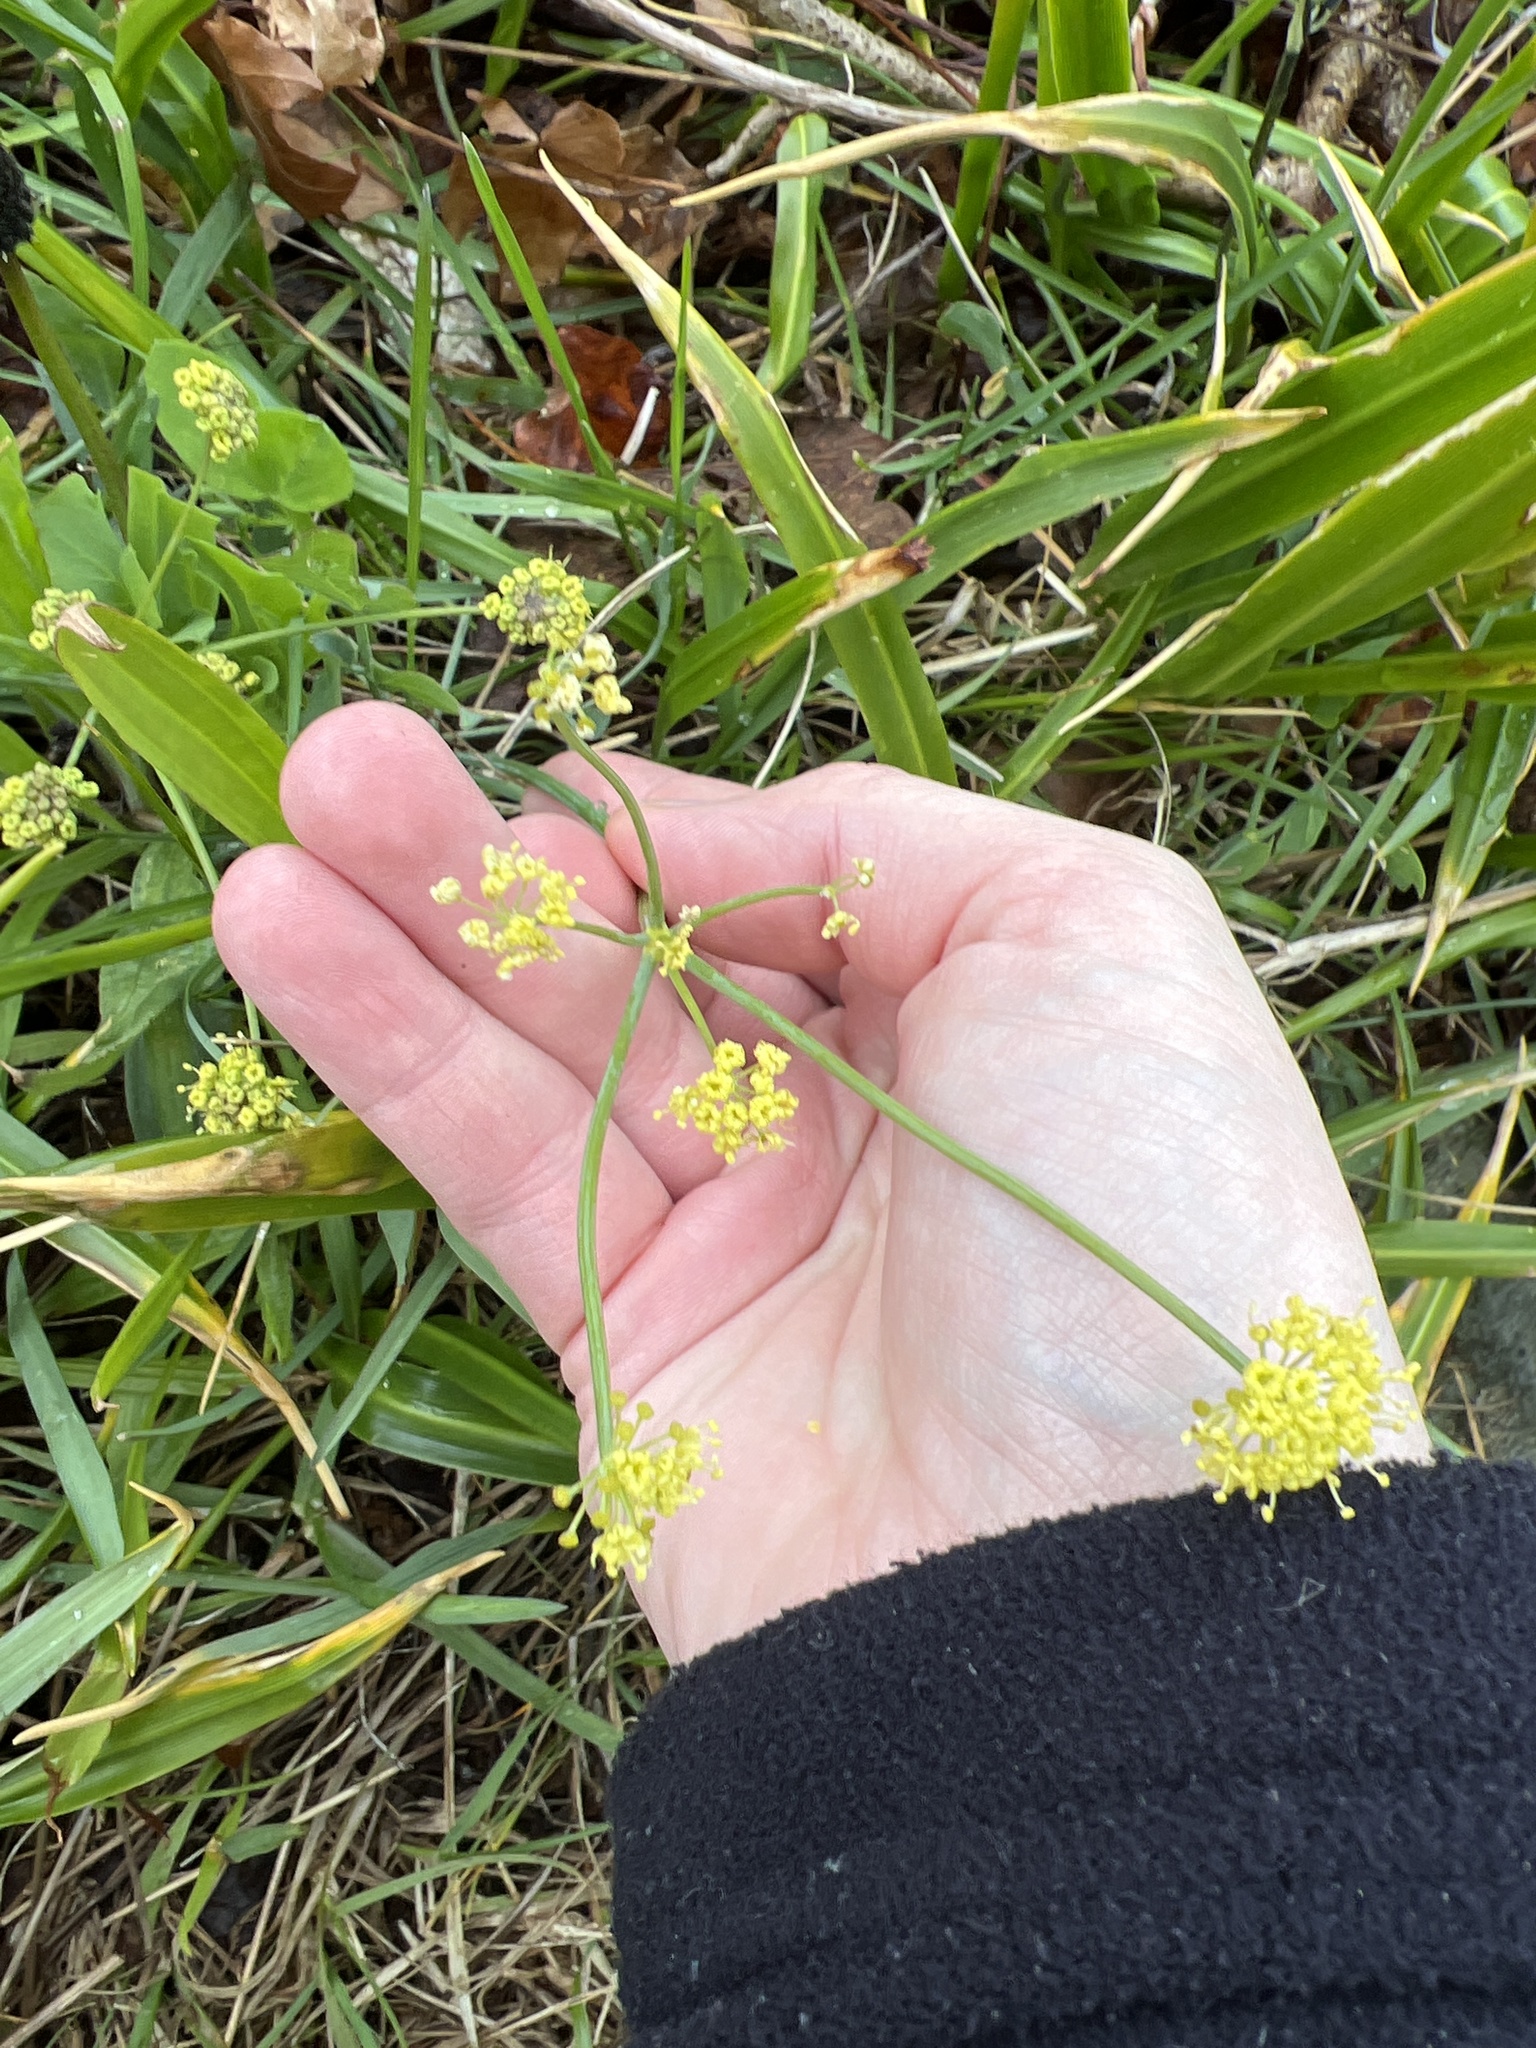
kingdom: Plantae
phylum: Tracheophyta
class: Magnoliopsida
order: Apiales
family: Apiaceae
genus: Lomatium
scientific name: Lomatium nudicaule
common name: Pestle lomatium
